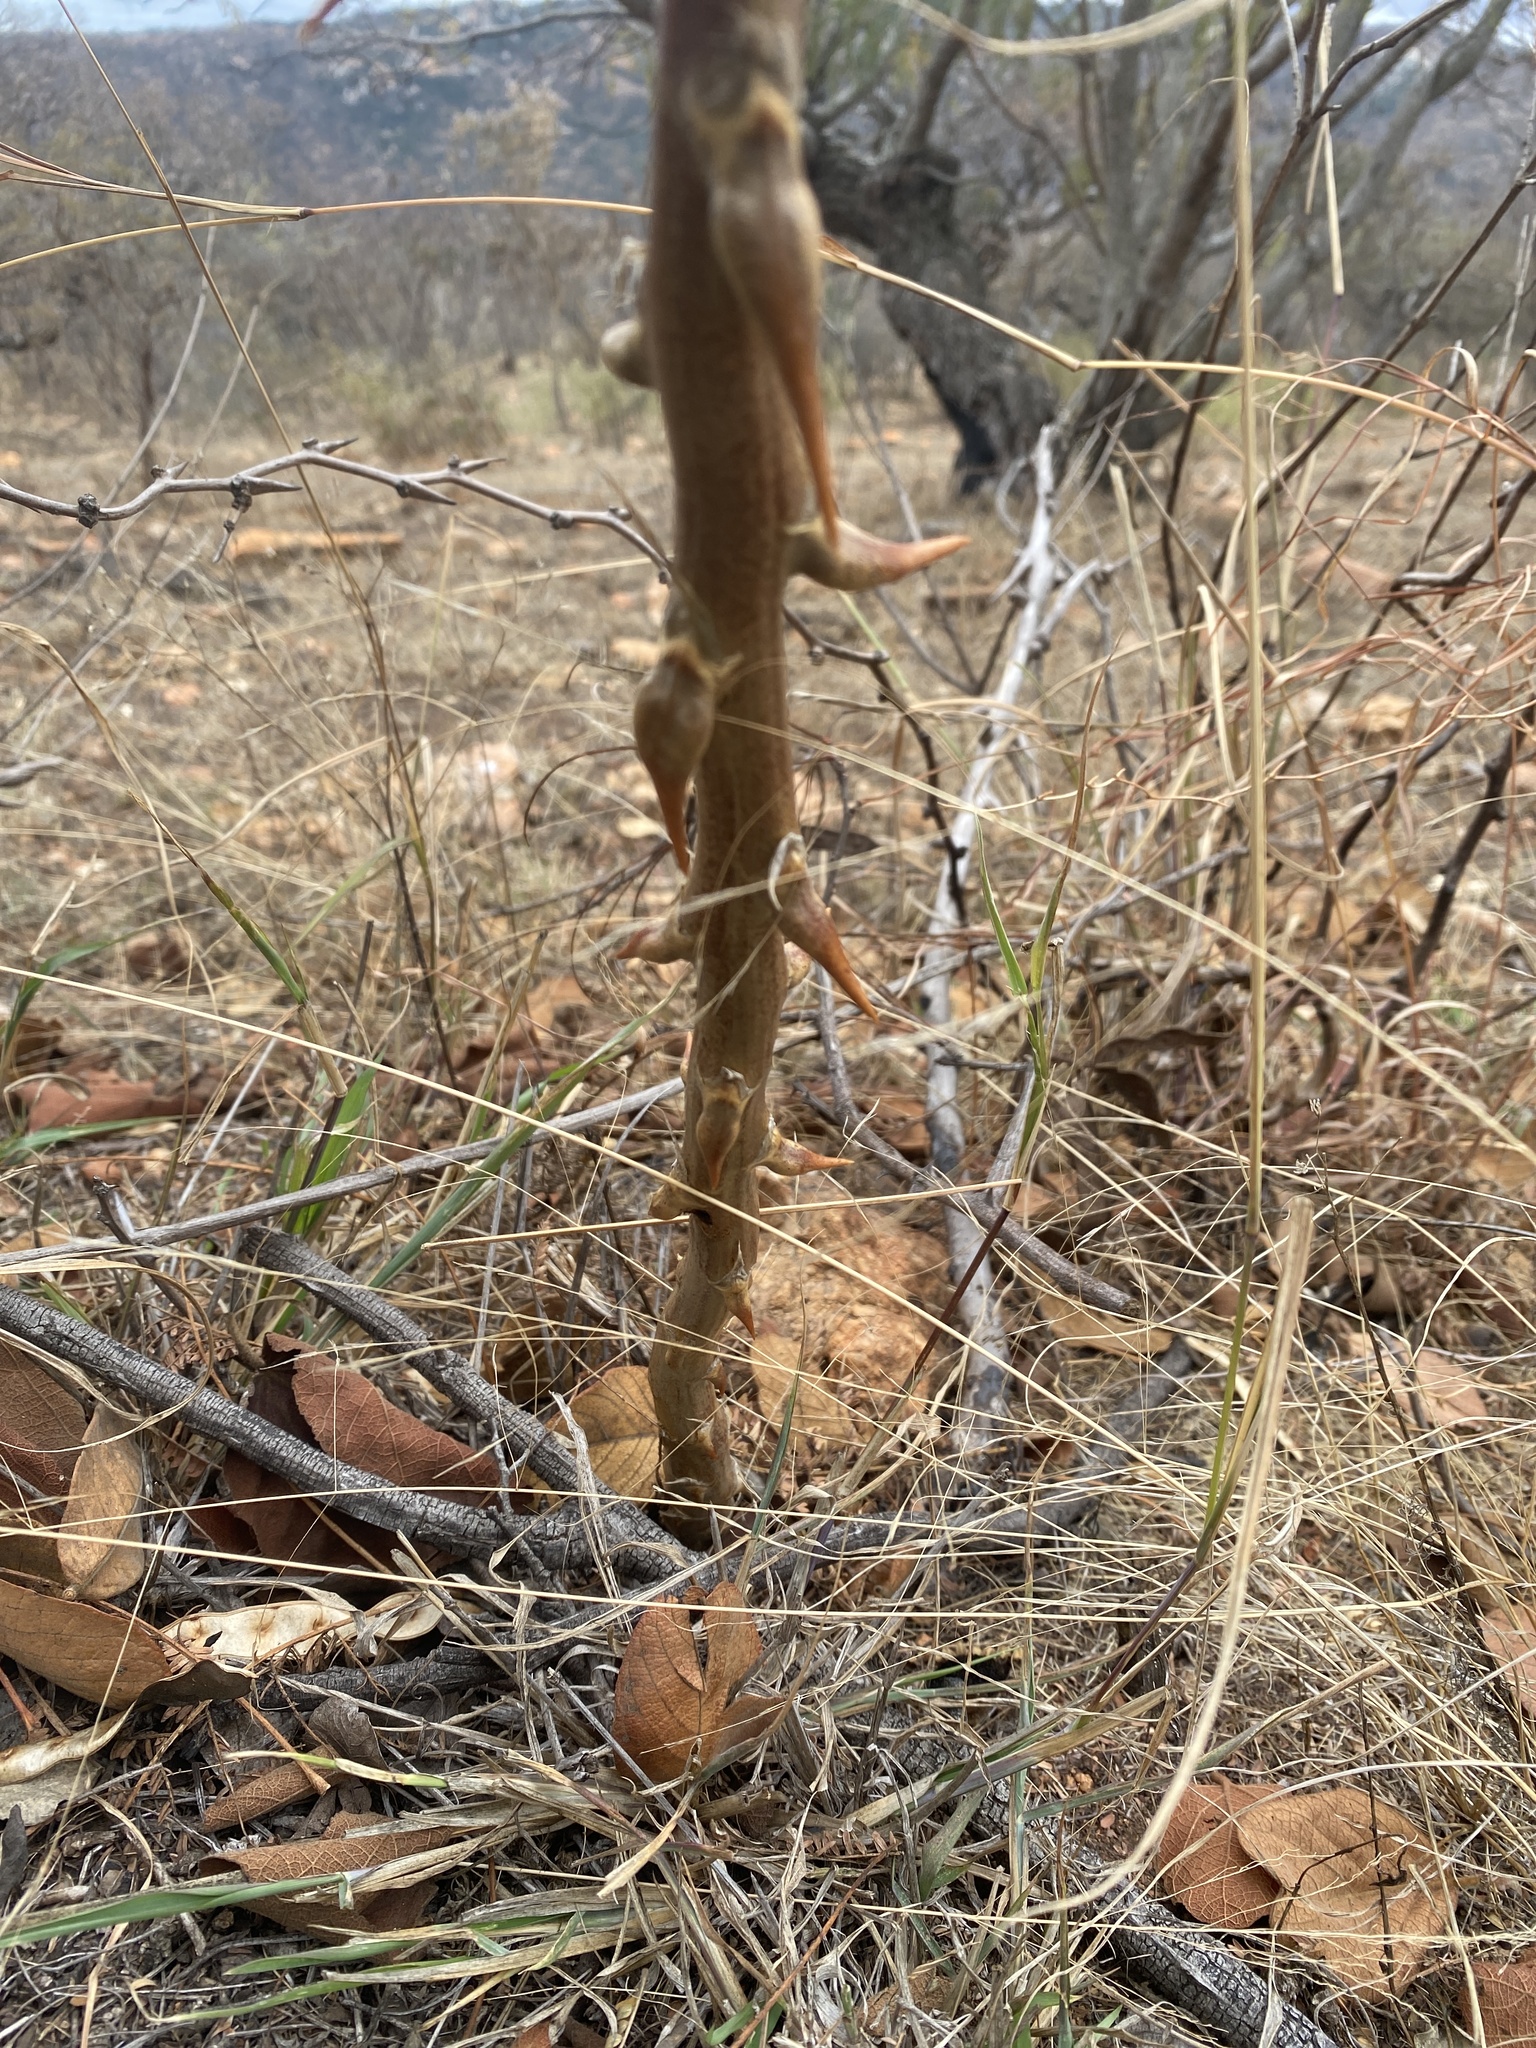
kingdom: Plantae
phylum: Tracheophyta
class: Liliopsida
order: Asparagales
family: Asparagaceae
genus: Asparagus
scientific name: Asparagus buchananii
